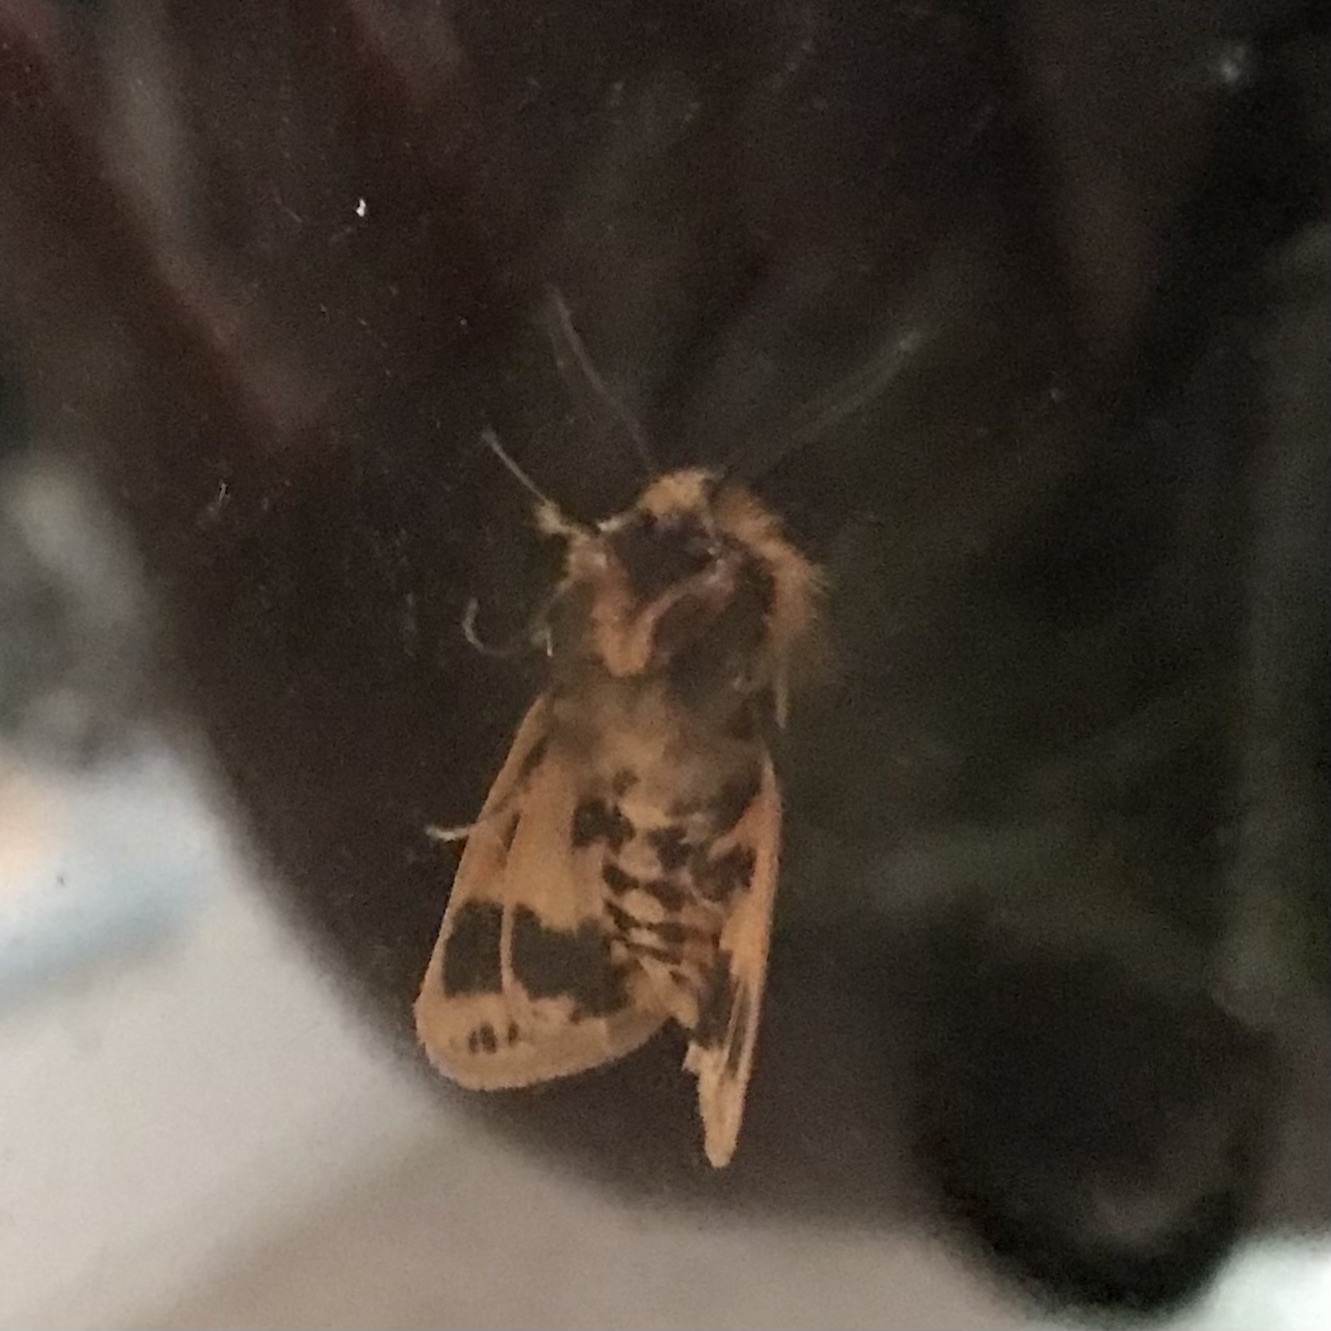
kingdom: Animalia
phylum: Arthropoda
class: Insecta
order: Lepidoptera
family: Erebidae
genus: Ardices
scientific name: Ardices curvata
